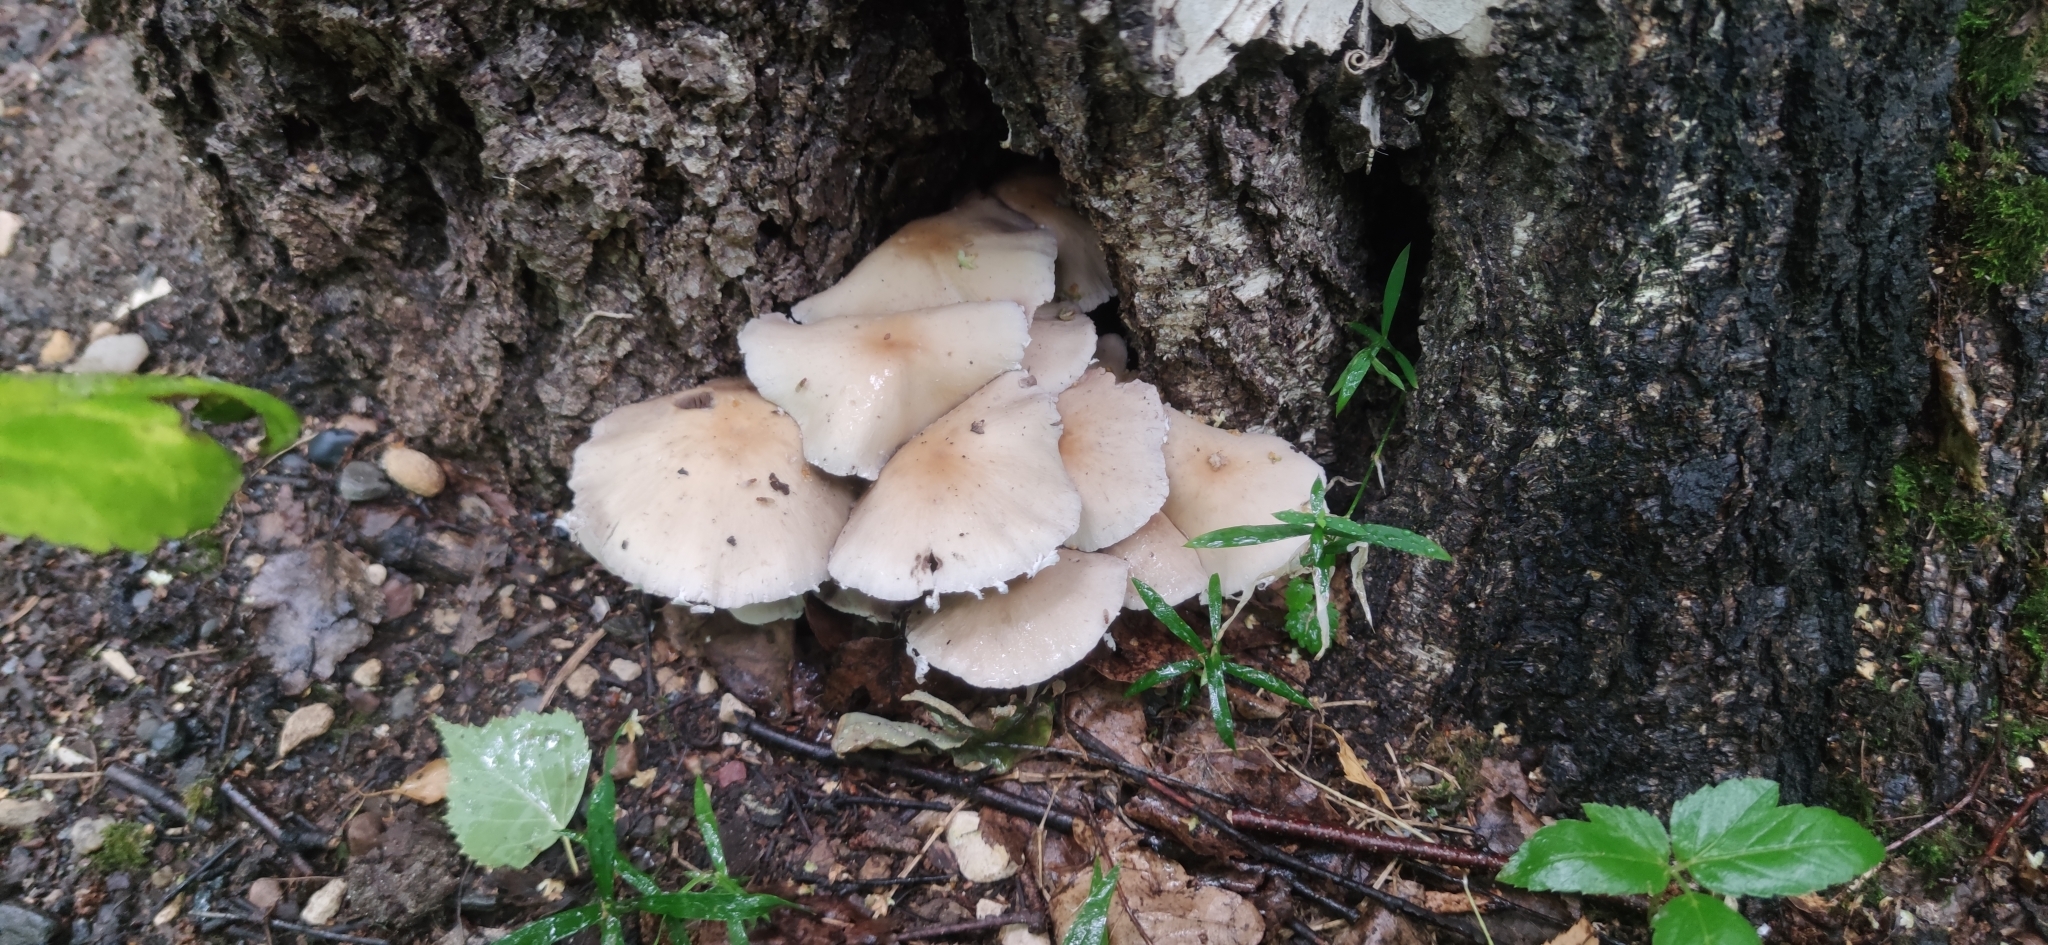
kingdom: Fungi
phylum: Basidiomycota
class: Agaricomycetes
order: Agaricales
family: Psathyrellaceae
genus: Candolleomyces
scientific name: Candolleomyces candolleanus
